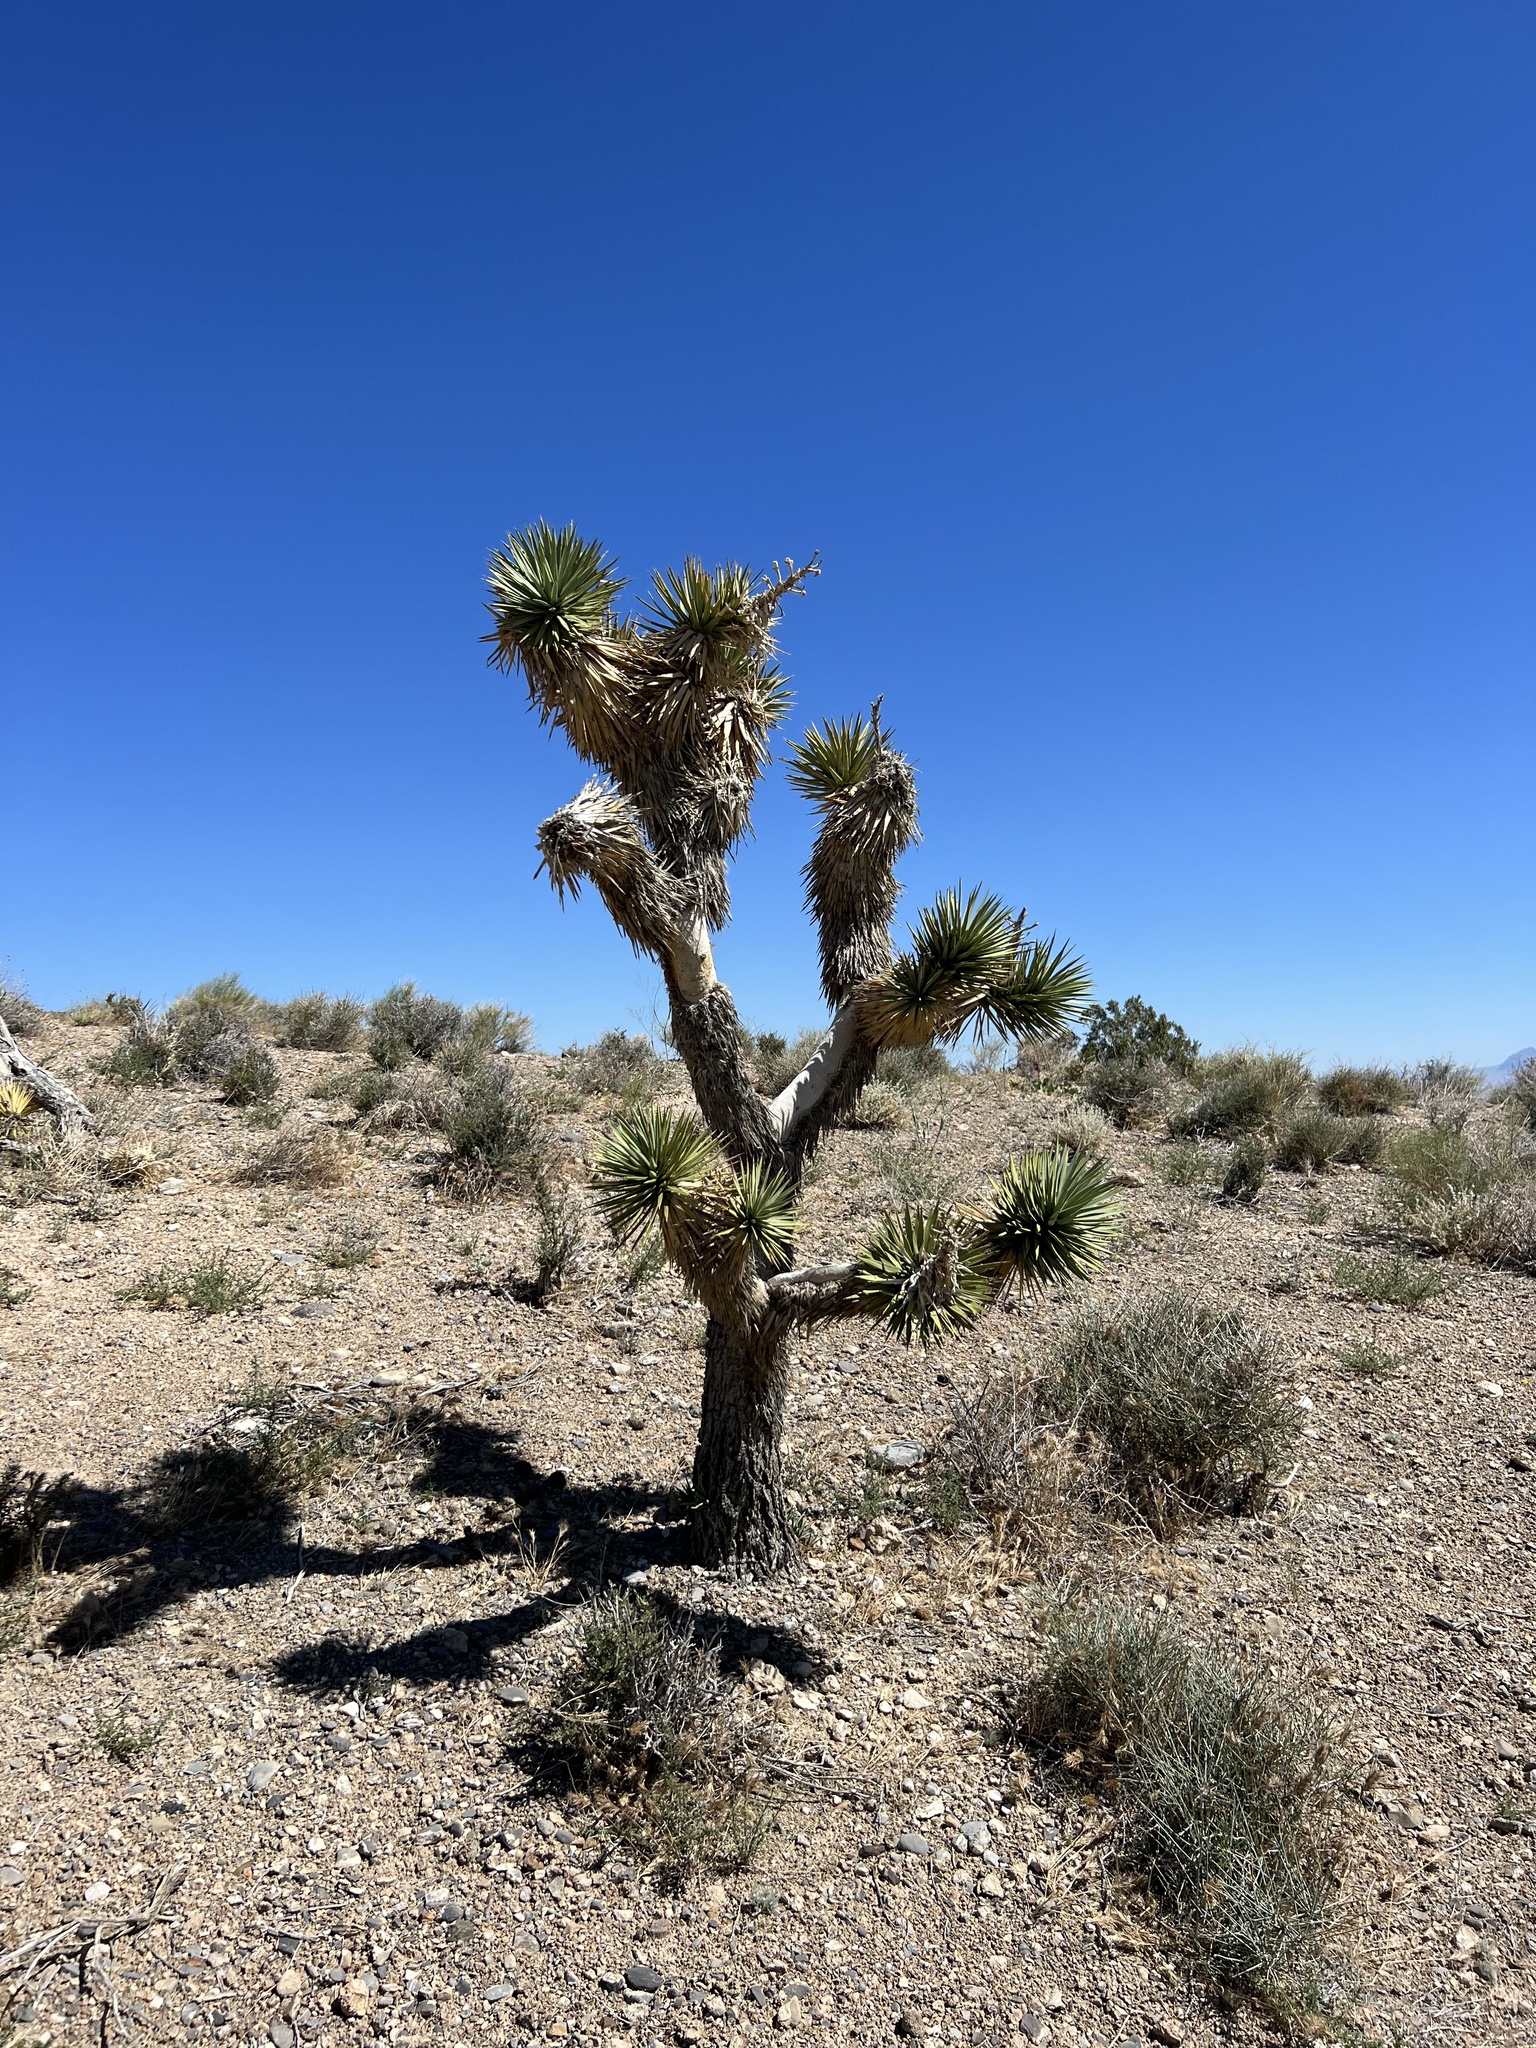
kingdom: Plantae
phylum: Tracheophyta
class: Liliopsida
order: Asparagales
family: Asparagaceae
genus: Yucca
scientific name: Yucca brevifolia
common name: Joshua tree
